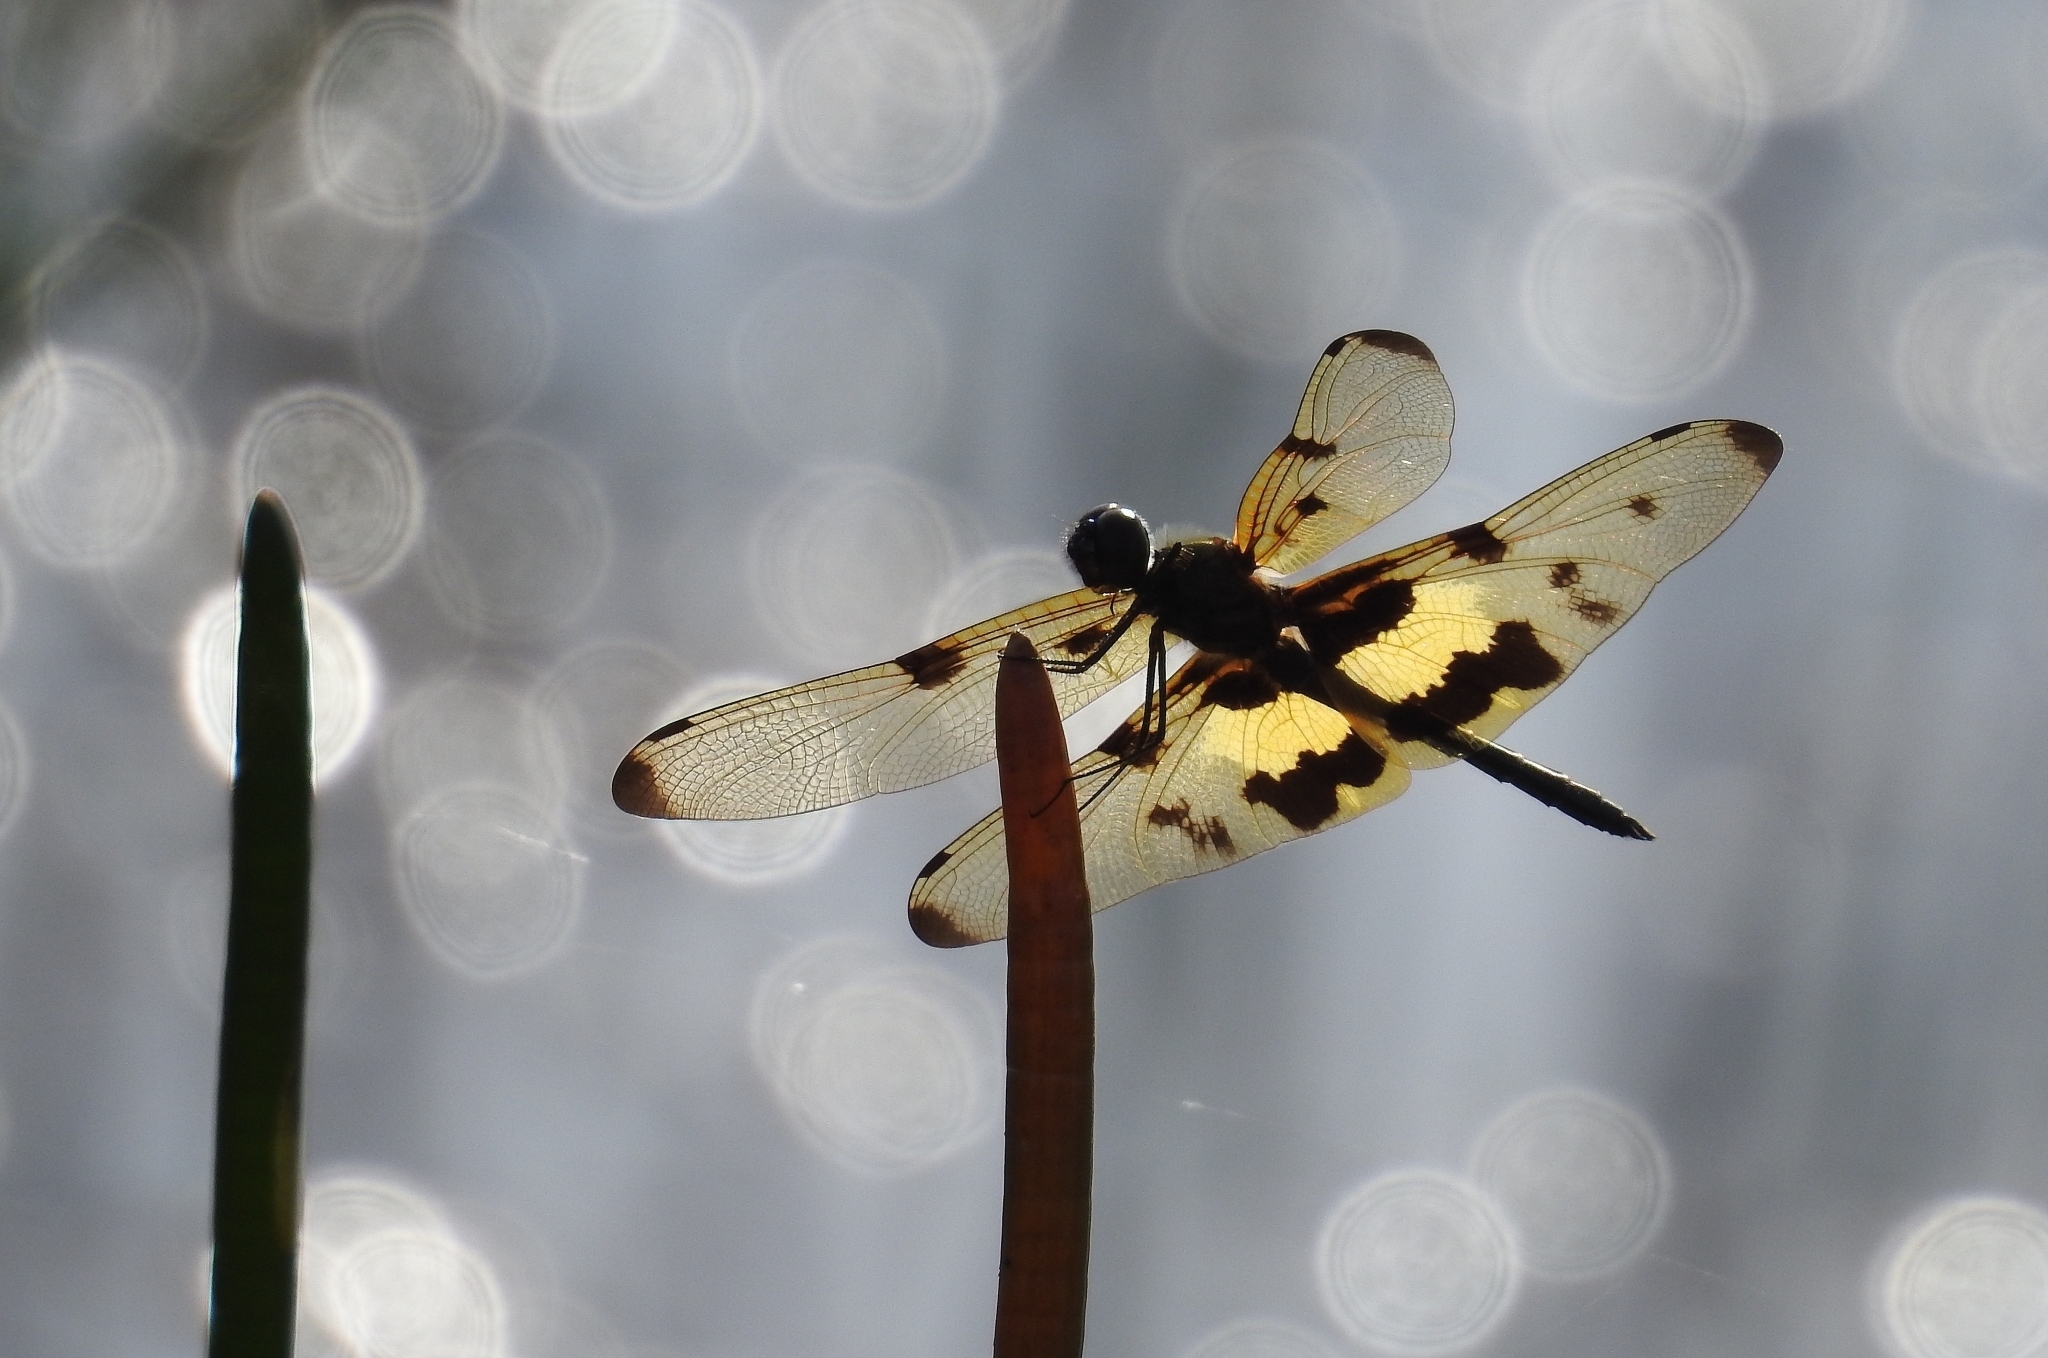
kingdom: Animalia
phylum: Arthropoda
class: Insecta
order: Odonata
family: Libellulidae
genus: Rhyothemis
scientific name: Rhyothemis variegata
